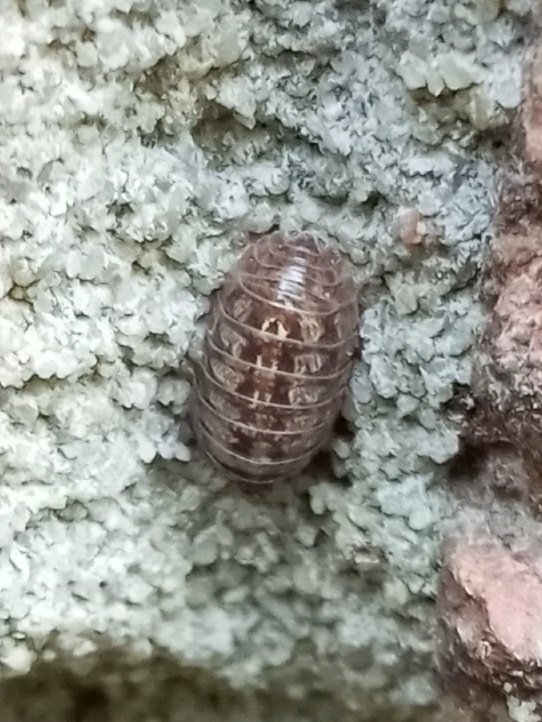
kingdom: Animalia
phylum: Arthropoda
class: Malacostraca
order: Isopoda
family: Armadillidiidae
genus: Armadillidium
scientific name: Armadillidium vulgare
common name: Common pill woodlouse
